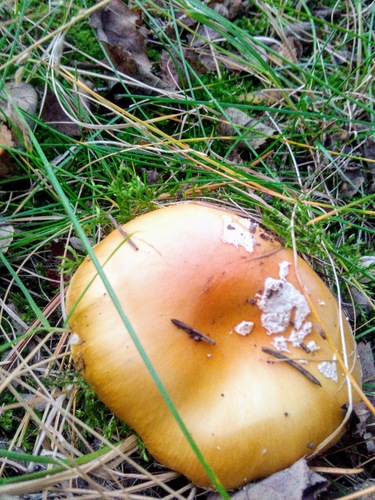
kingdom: Fungi
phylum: Basidiomycota
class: Agaricomycetes
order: Agaricales
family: Amanitaceae
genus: Amanita
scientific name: Amanita muscaria
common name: Fly agaric
